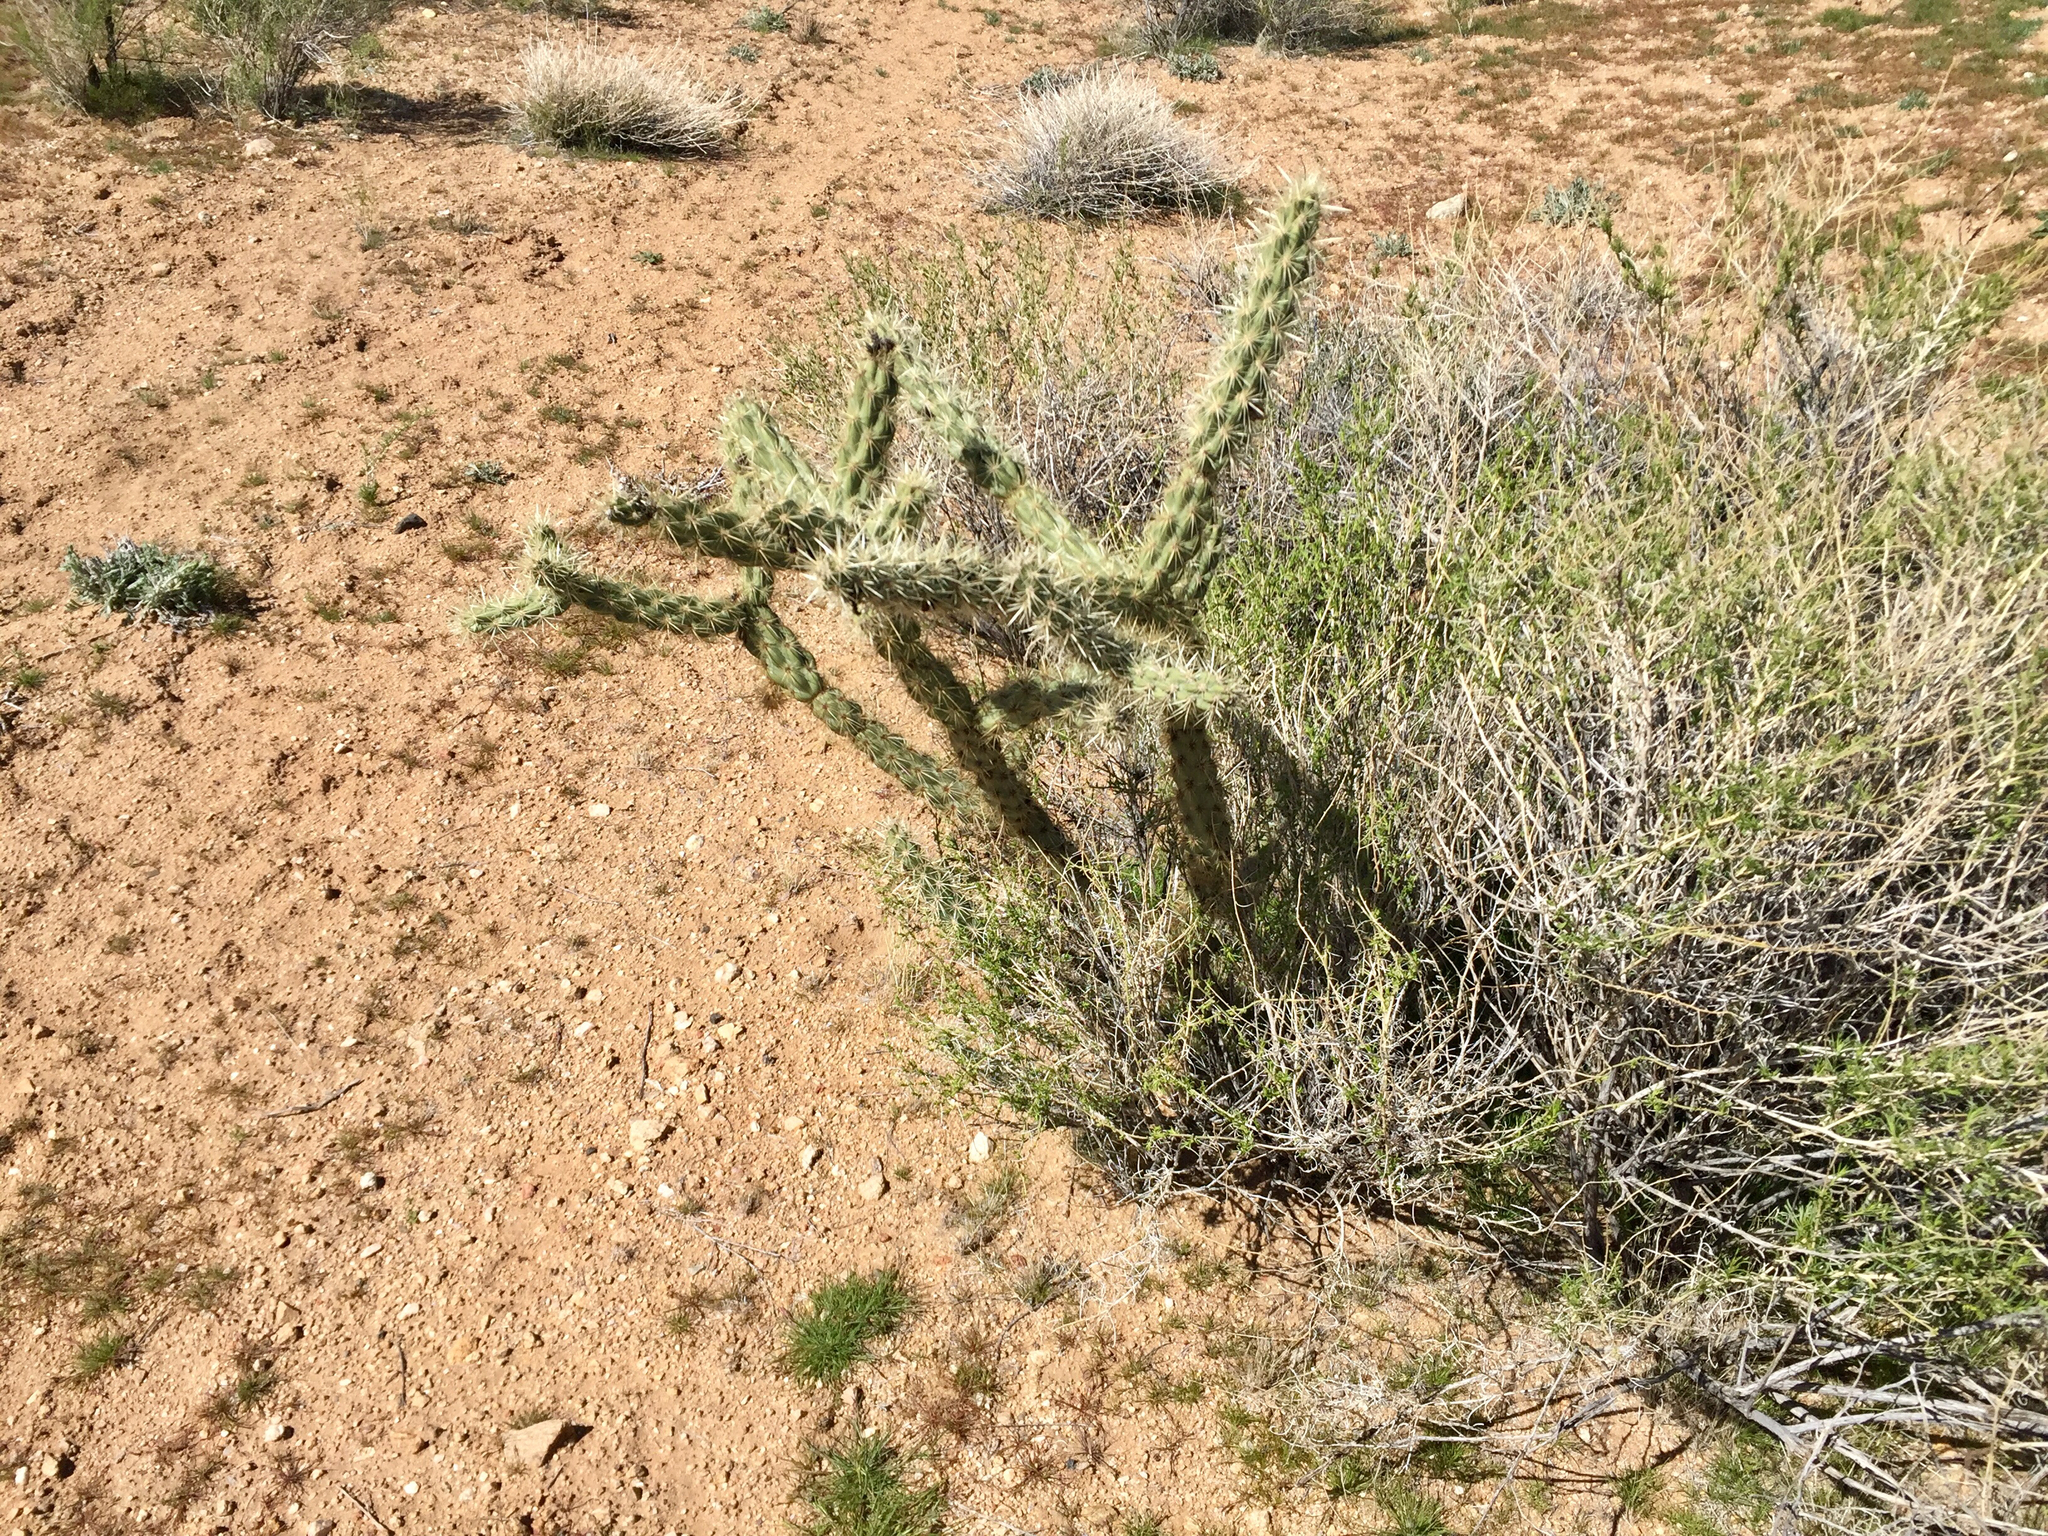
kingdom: Plantae
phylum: Tracheophyta
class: Magnoliopsida
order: Caryophyllales
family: Cactaceae
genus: Cylindropuntia
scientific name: Cylindropuntia acanthocarpa
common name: Buckhorn cholla
